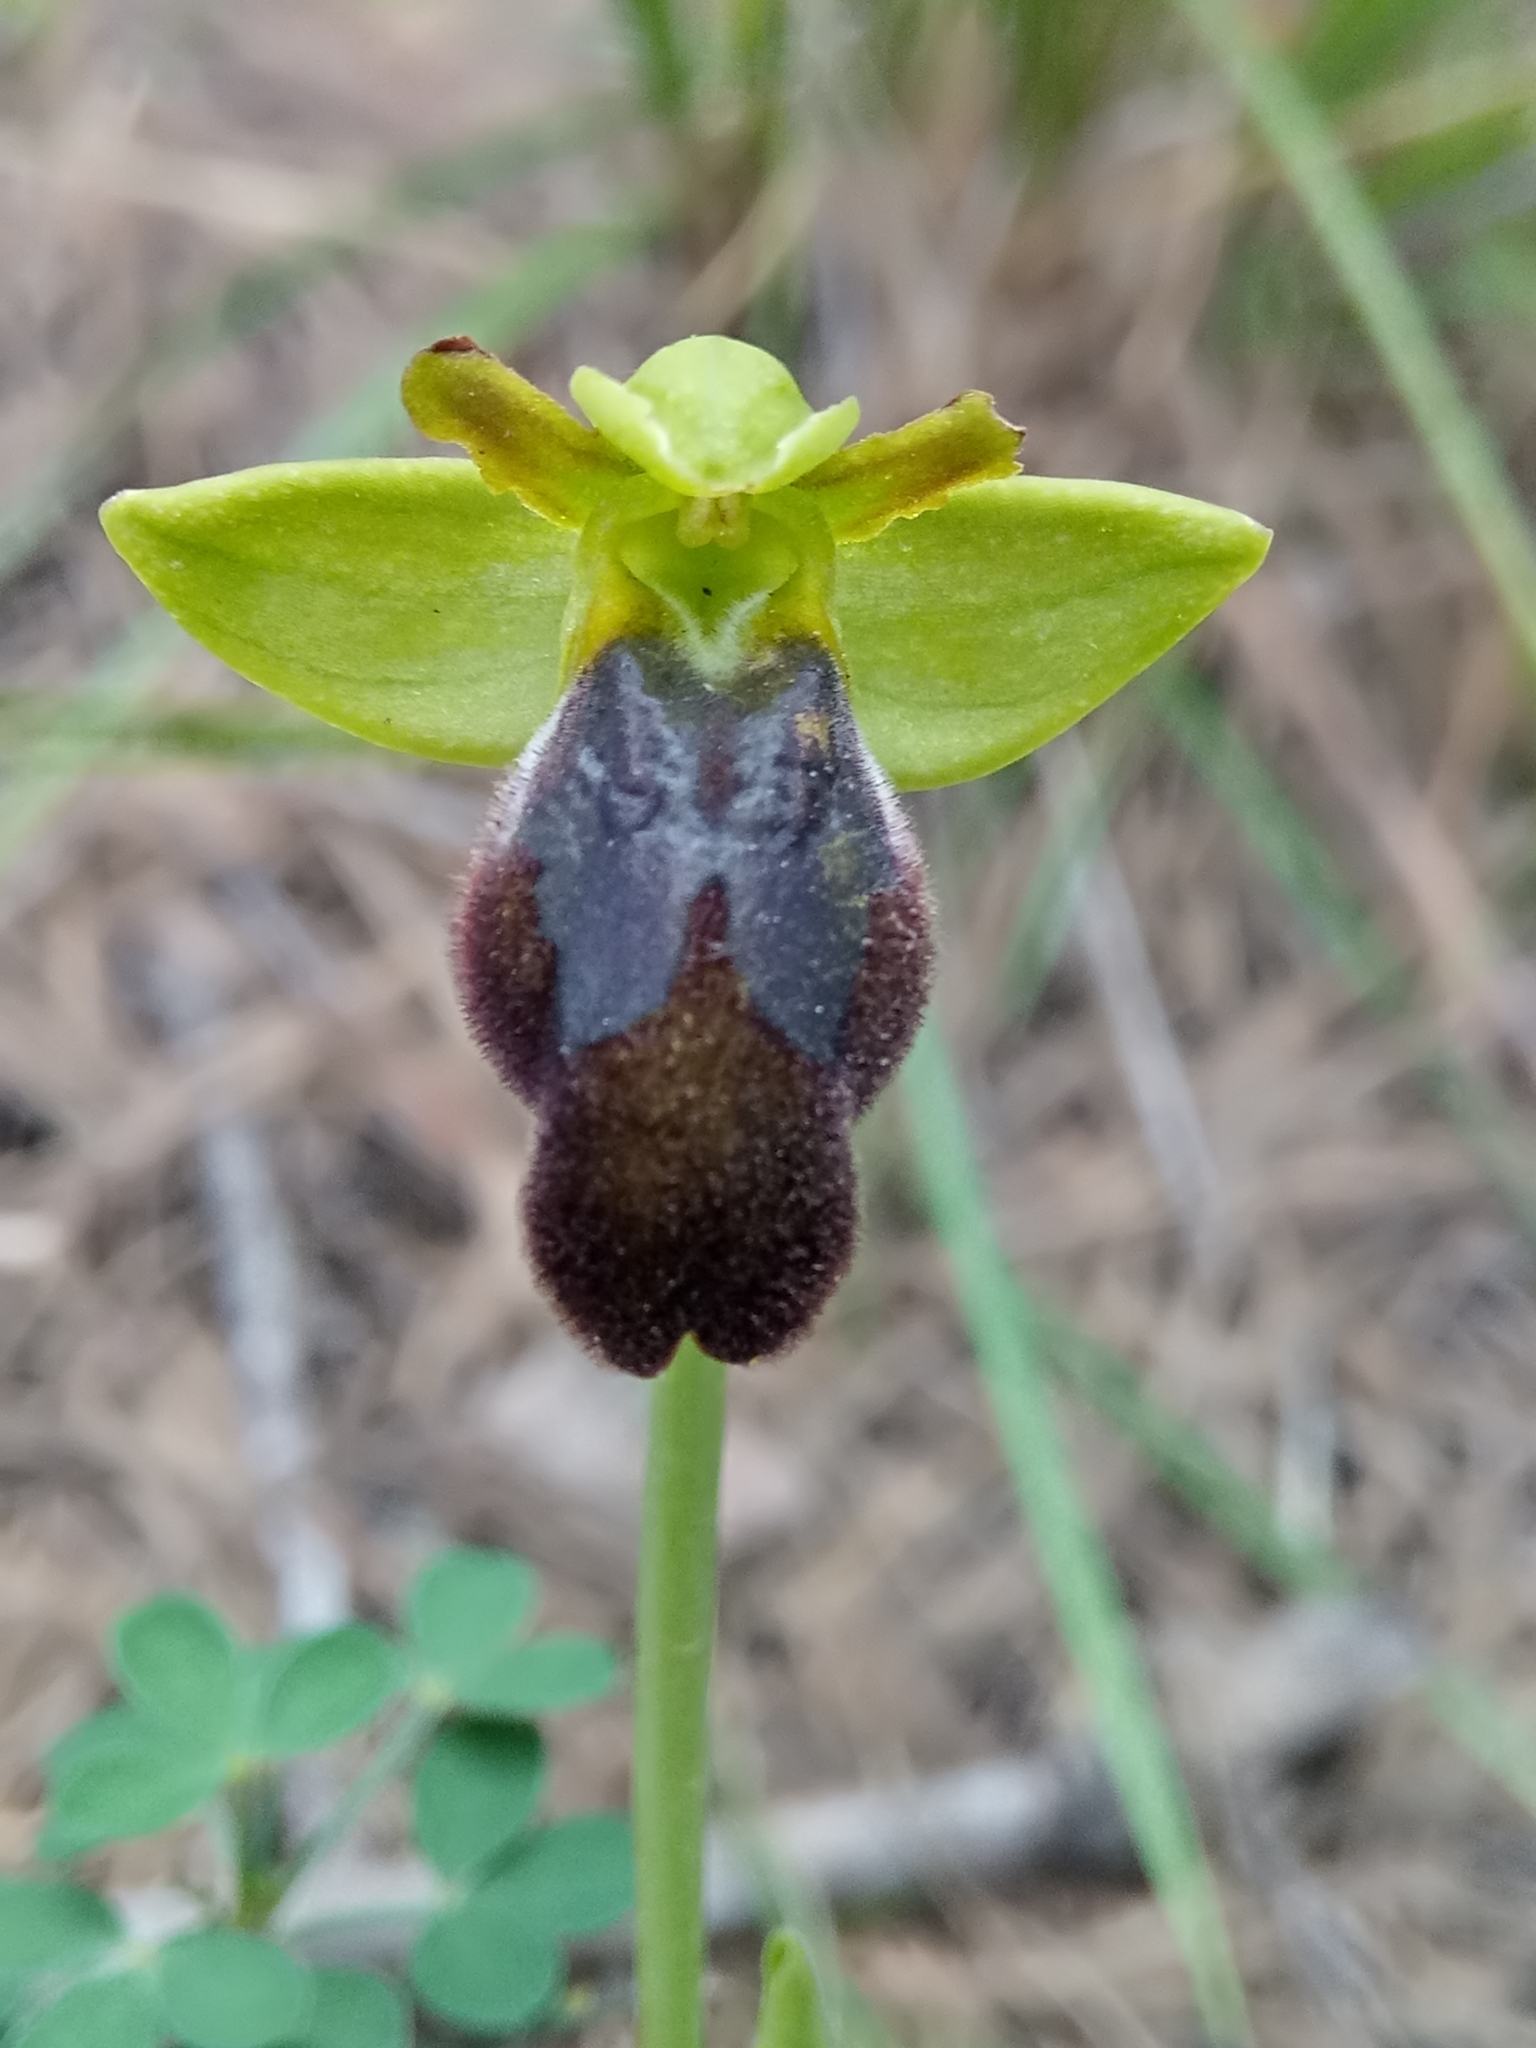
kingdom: Plantae
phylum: Tracheophyta
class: Liliopsida
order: Asparagales
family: Orchidaceae
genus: Ophrys
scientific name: Ophrys fusca
